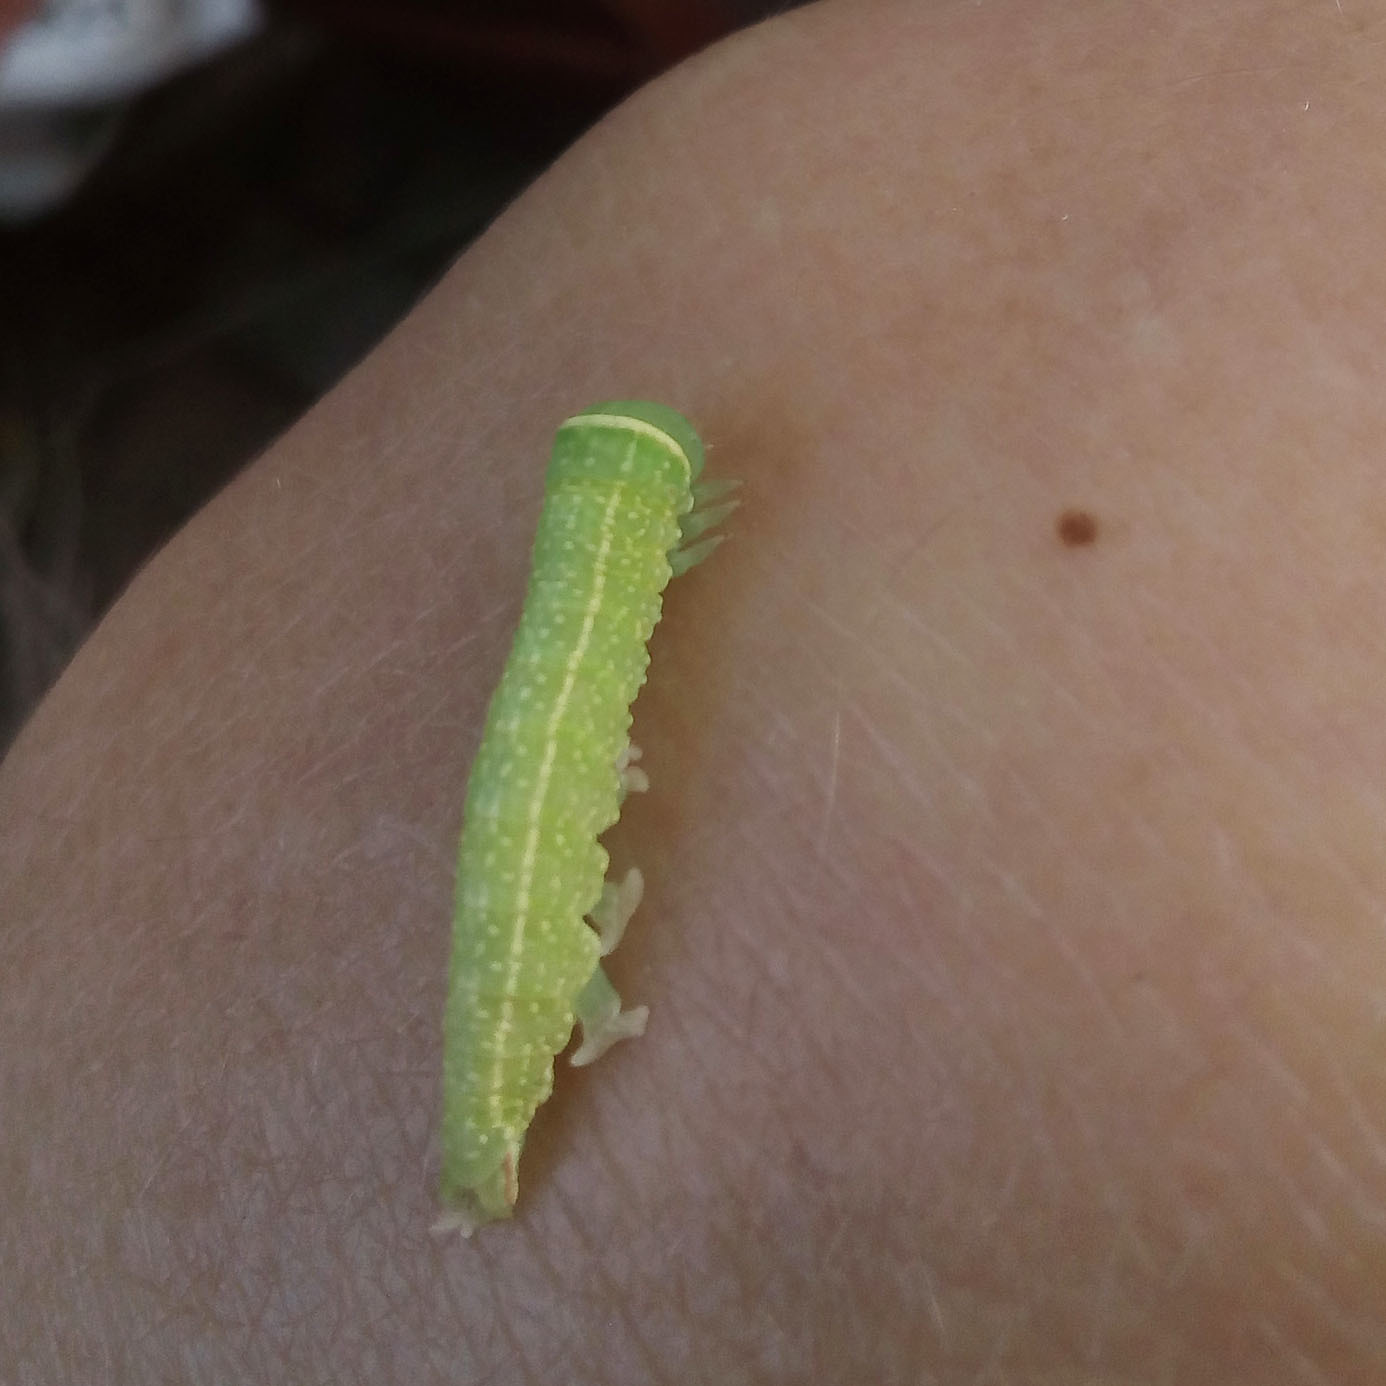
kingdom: Animalia
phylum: Arthropoda
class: Insecta
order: Lepidoptera
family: Nolidae
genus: Pseudoips
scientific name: Pseudoips prasinana
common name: Green silver-lines
